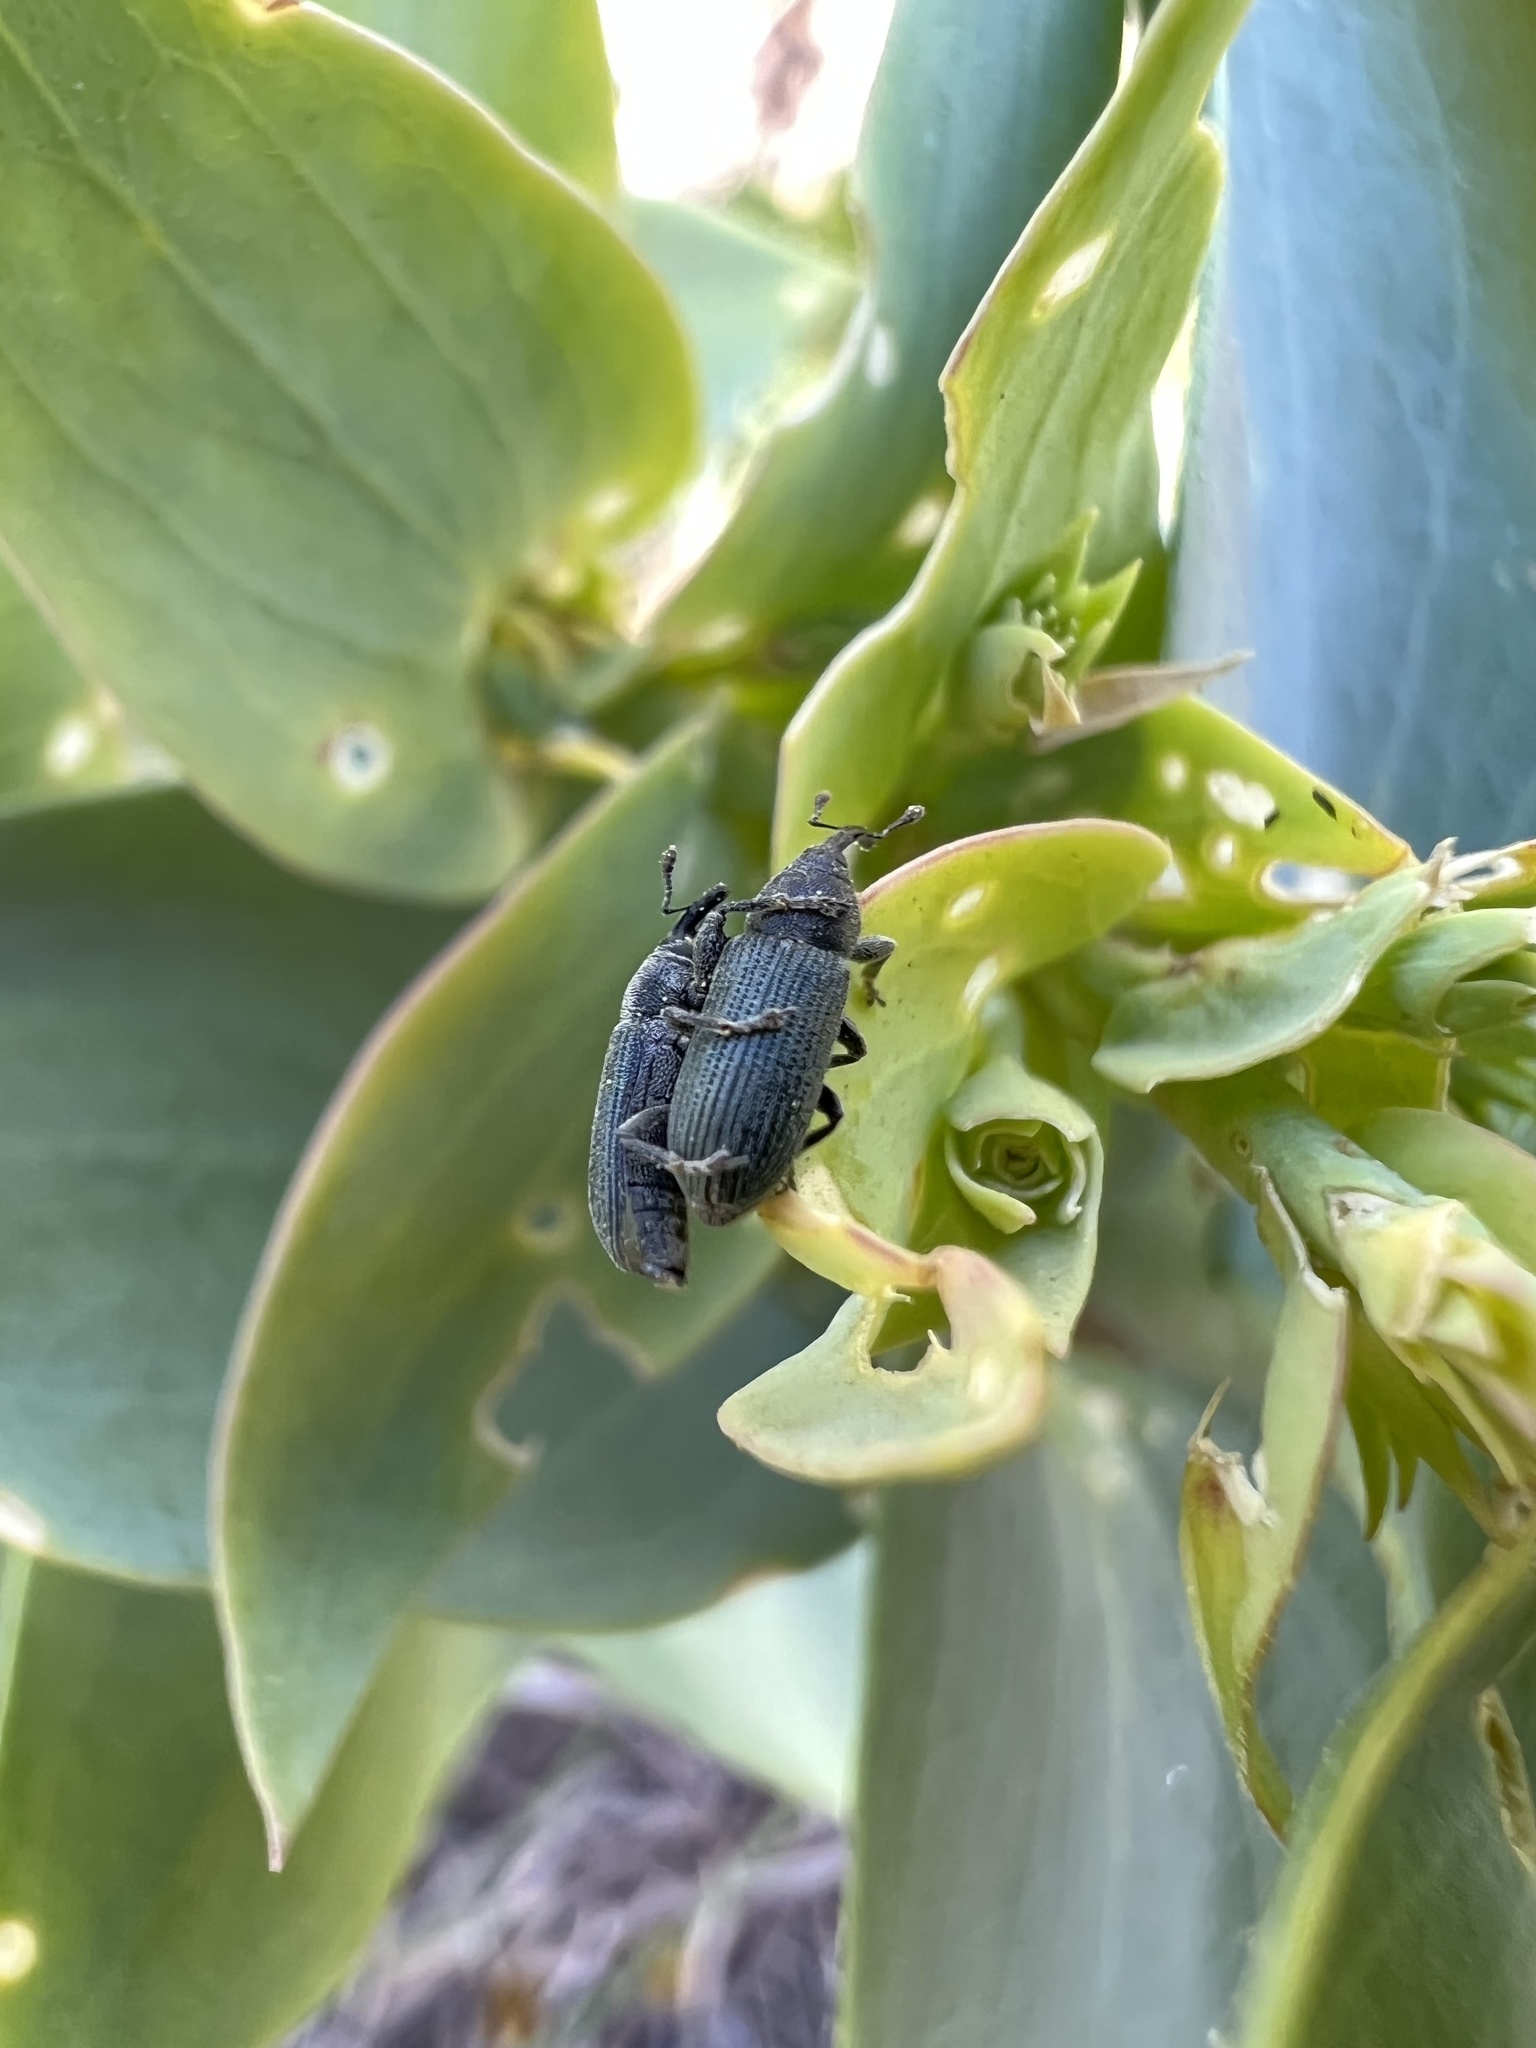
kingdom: Animalia
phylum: Arthropoda
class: Insecta
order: Coleoptera
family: Curculionidae
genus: Mecinus
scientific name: Mecinus janthiniformis
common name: Dalmatian toadflax stem weevil
